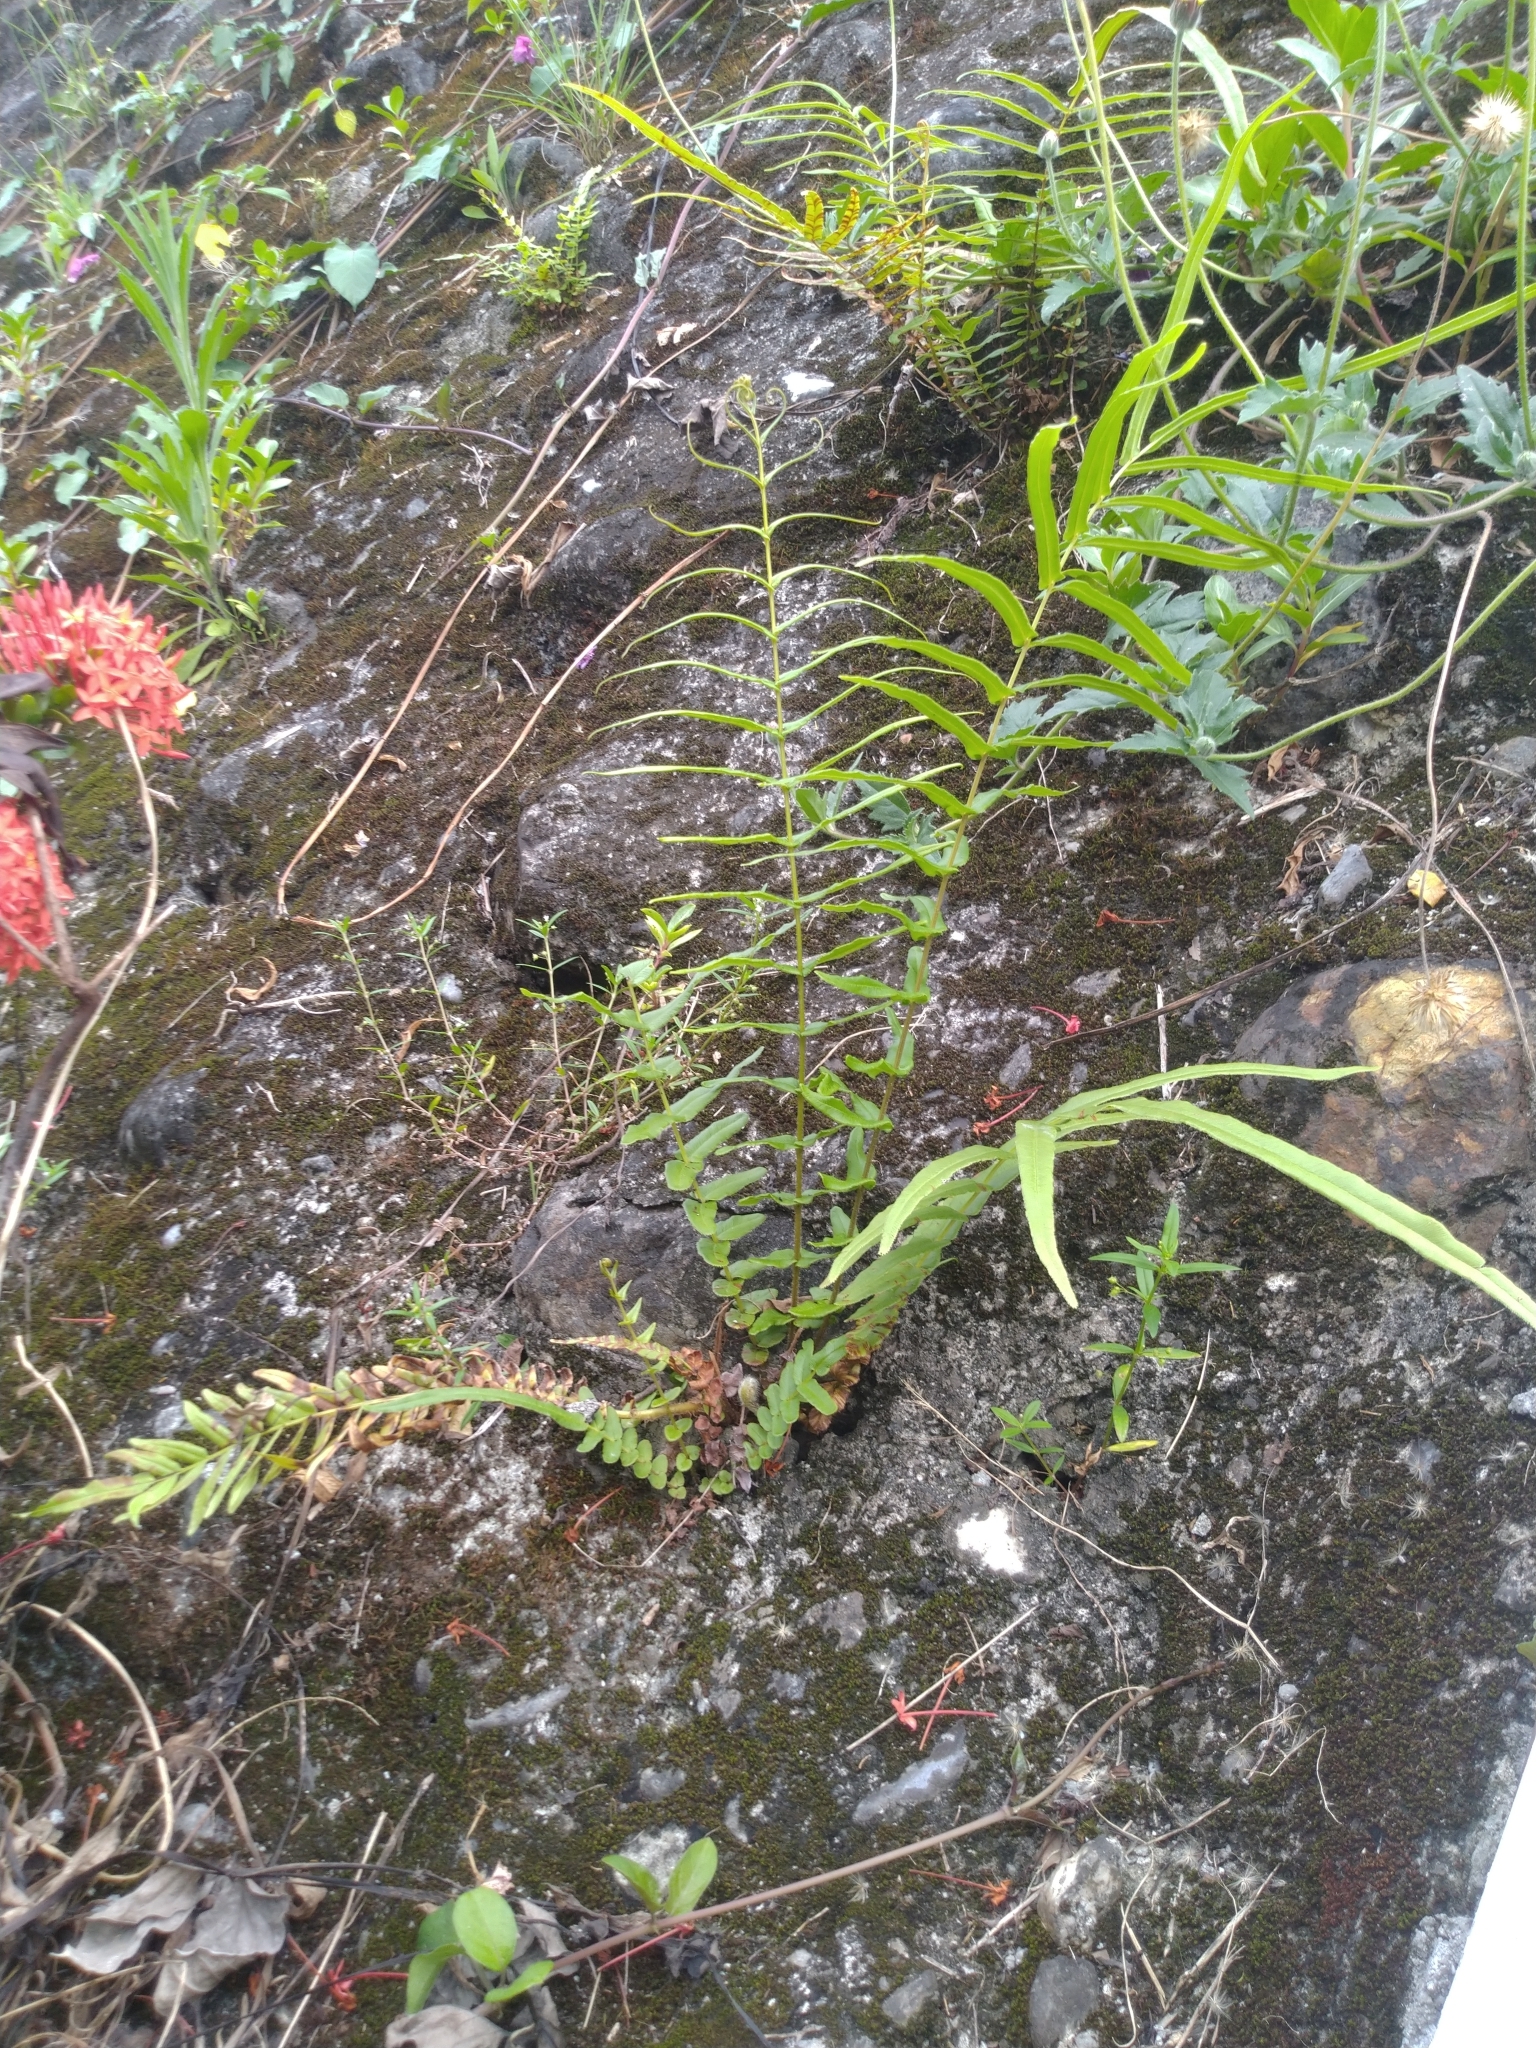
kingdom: Plantae
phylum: Tracheophyta
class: Polypodiopsida
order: Polypodiales
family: Pteridaceae
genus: Pteris
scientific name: Pteris vittata
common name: Ladder brake
